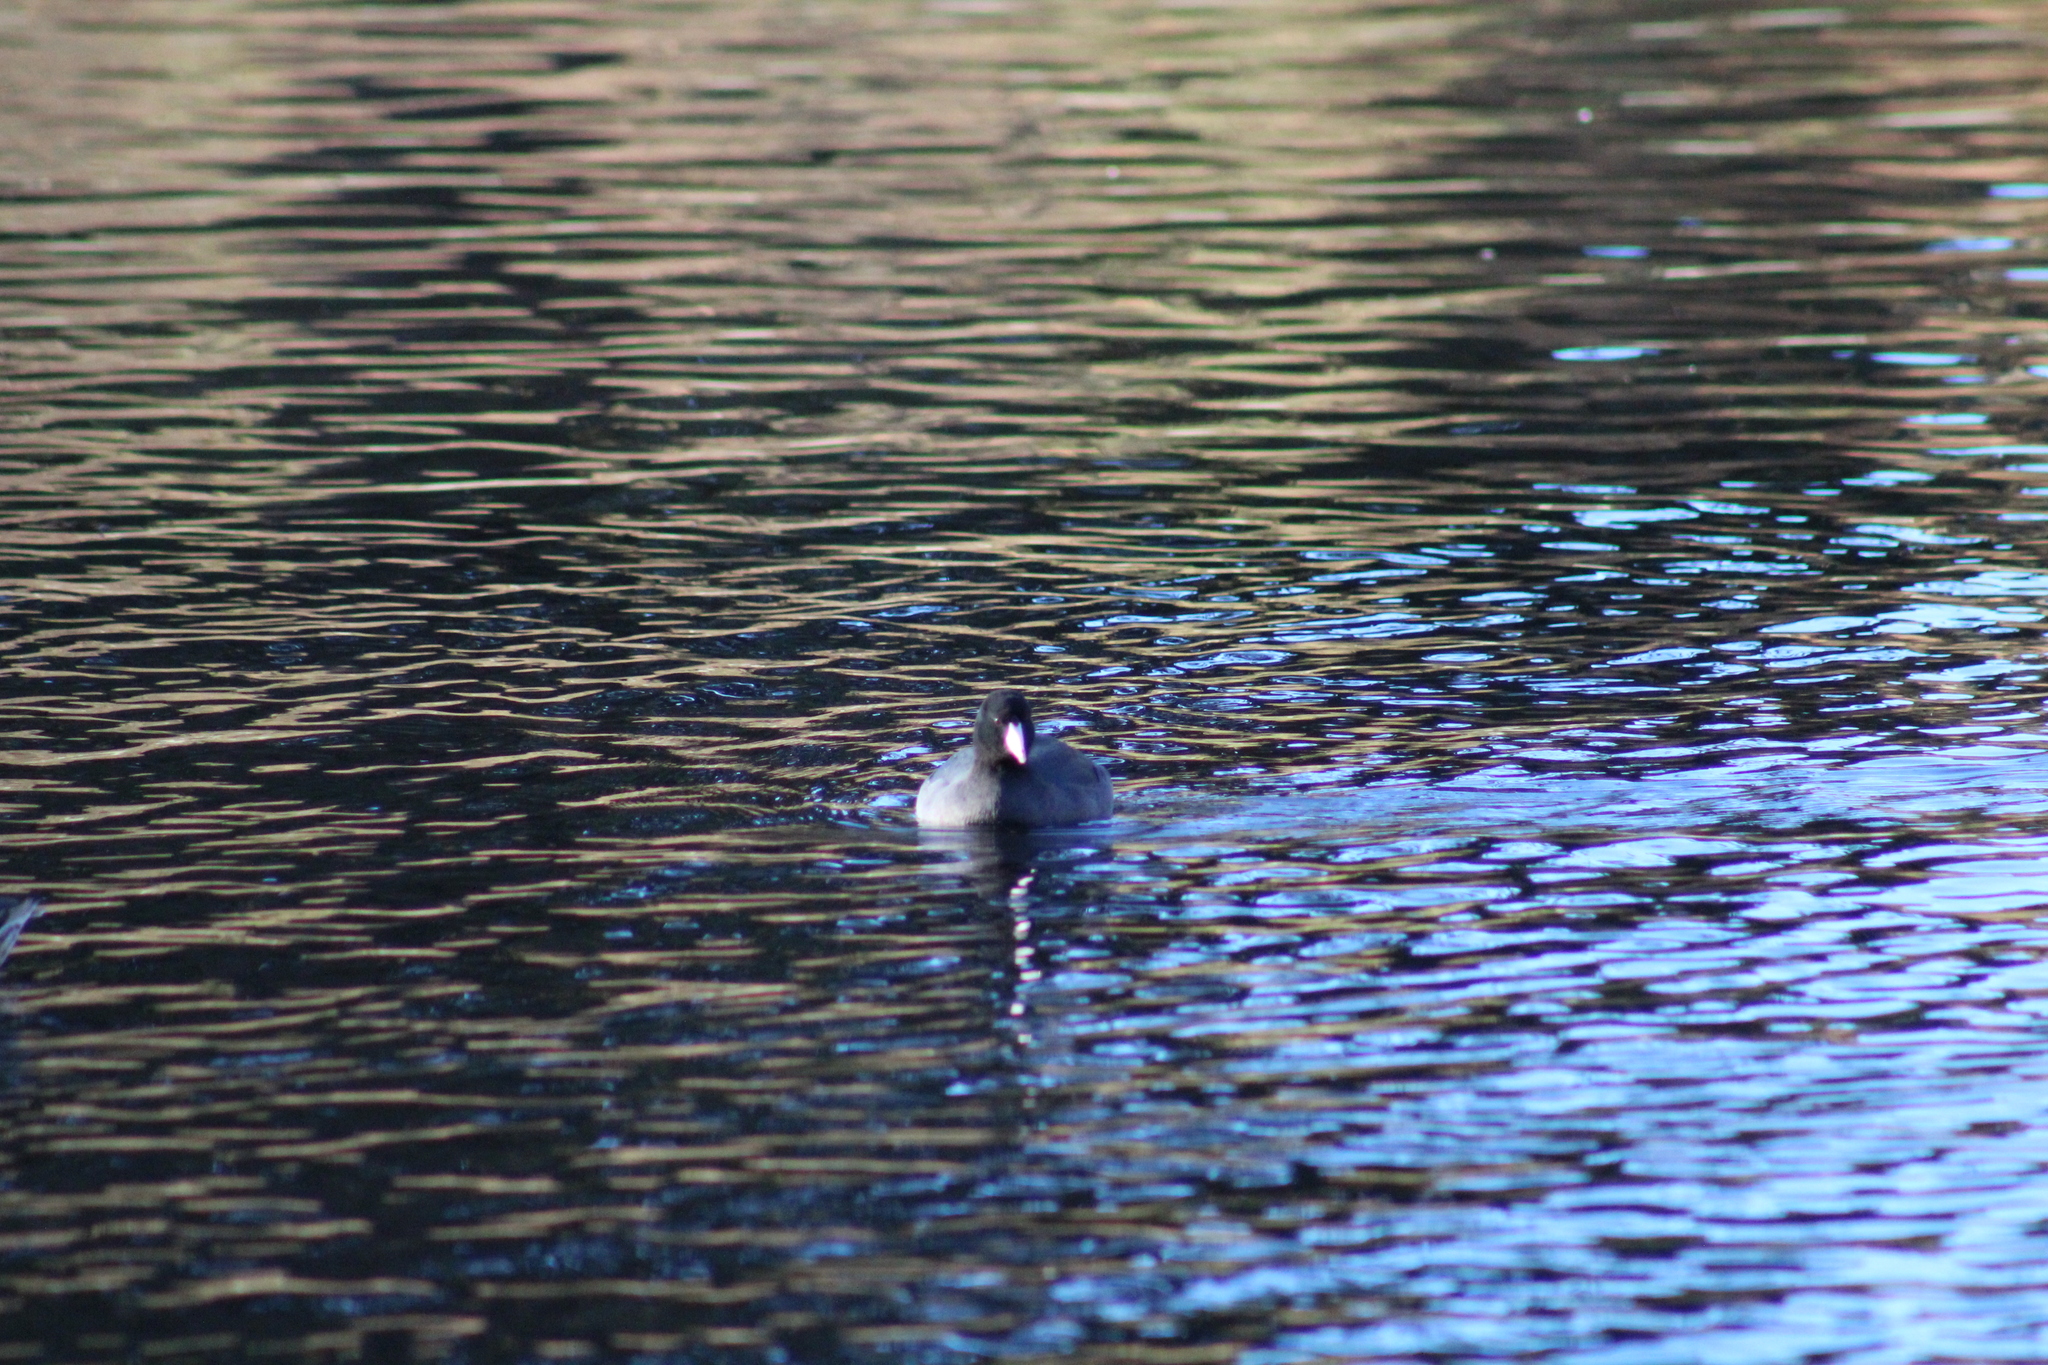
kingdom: Animalia
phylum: Chordata
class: Aves
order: Gruiformes
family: Rallidae
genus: Fulica
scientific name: Fulica americana
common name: American coot
